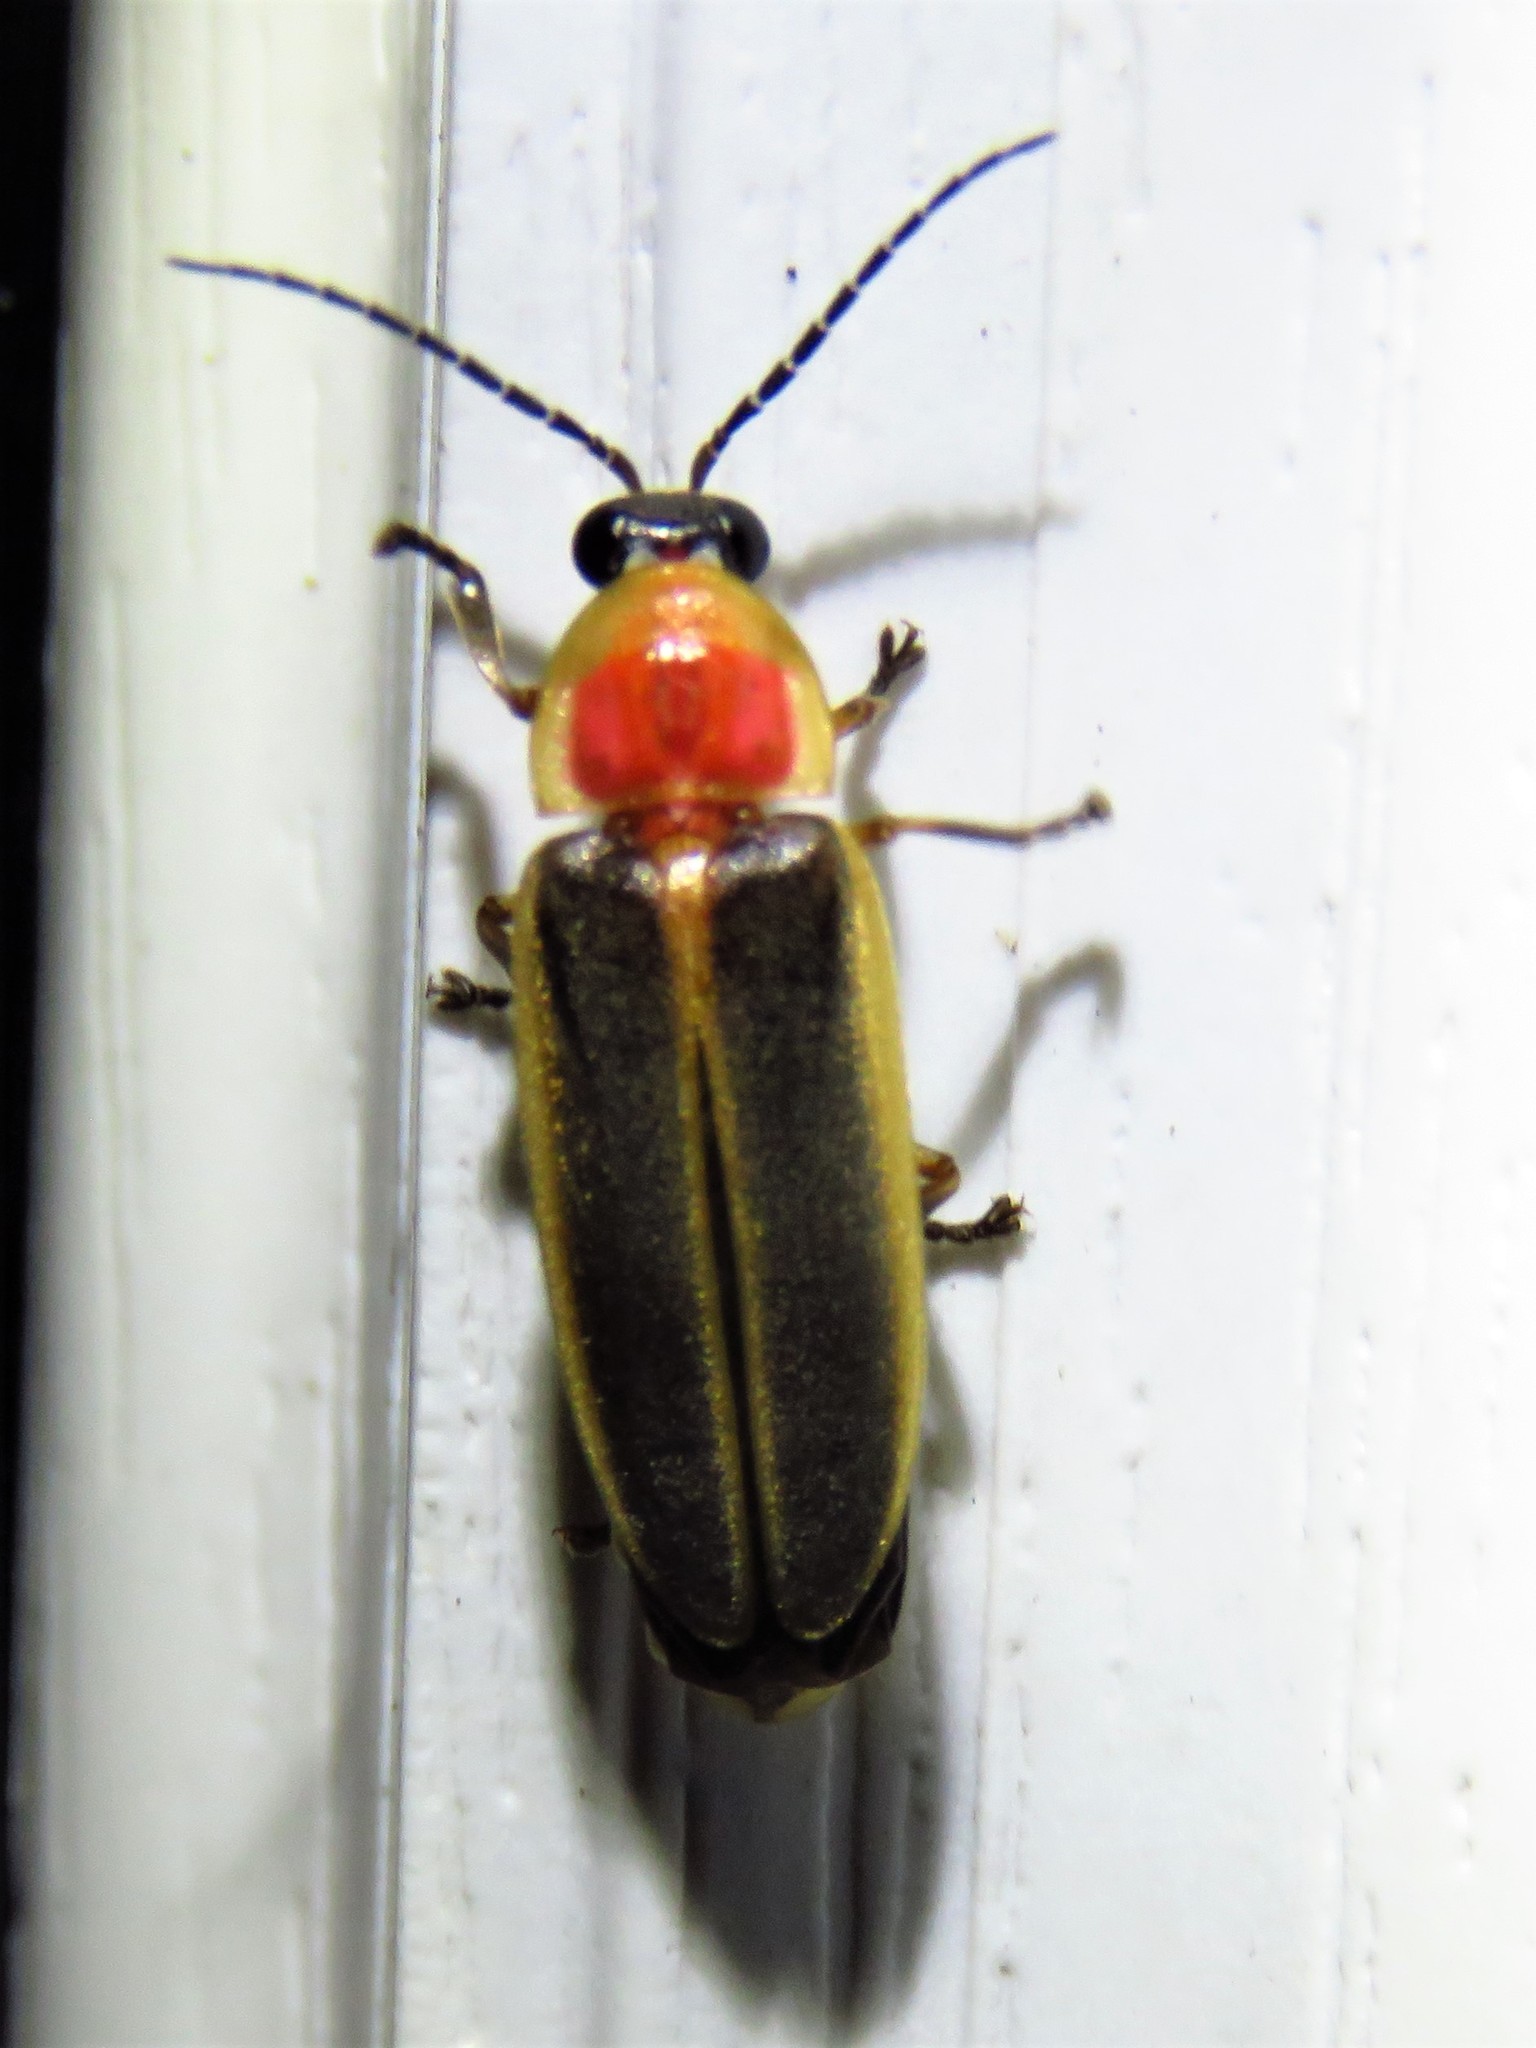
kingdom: Animalia
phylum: Arthropoda
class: Insecta
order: Coleoptera
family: Lampyridae
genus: Photinus
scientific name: Photinus pyralis
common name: Big dipper firefly
